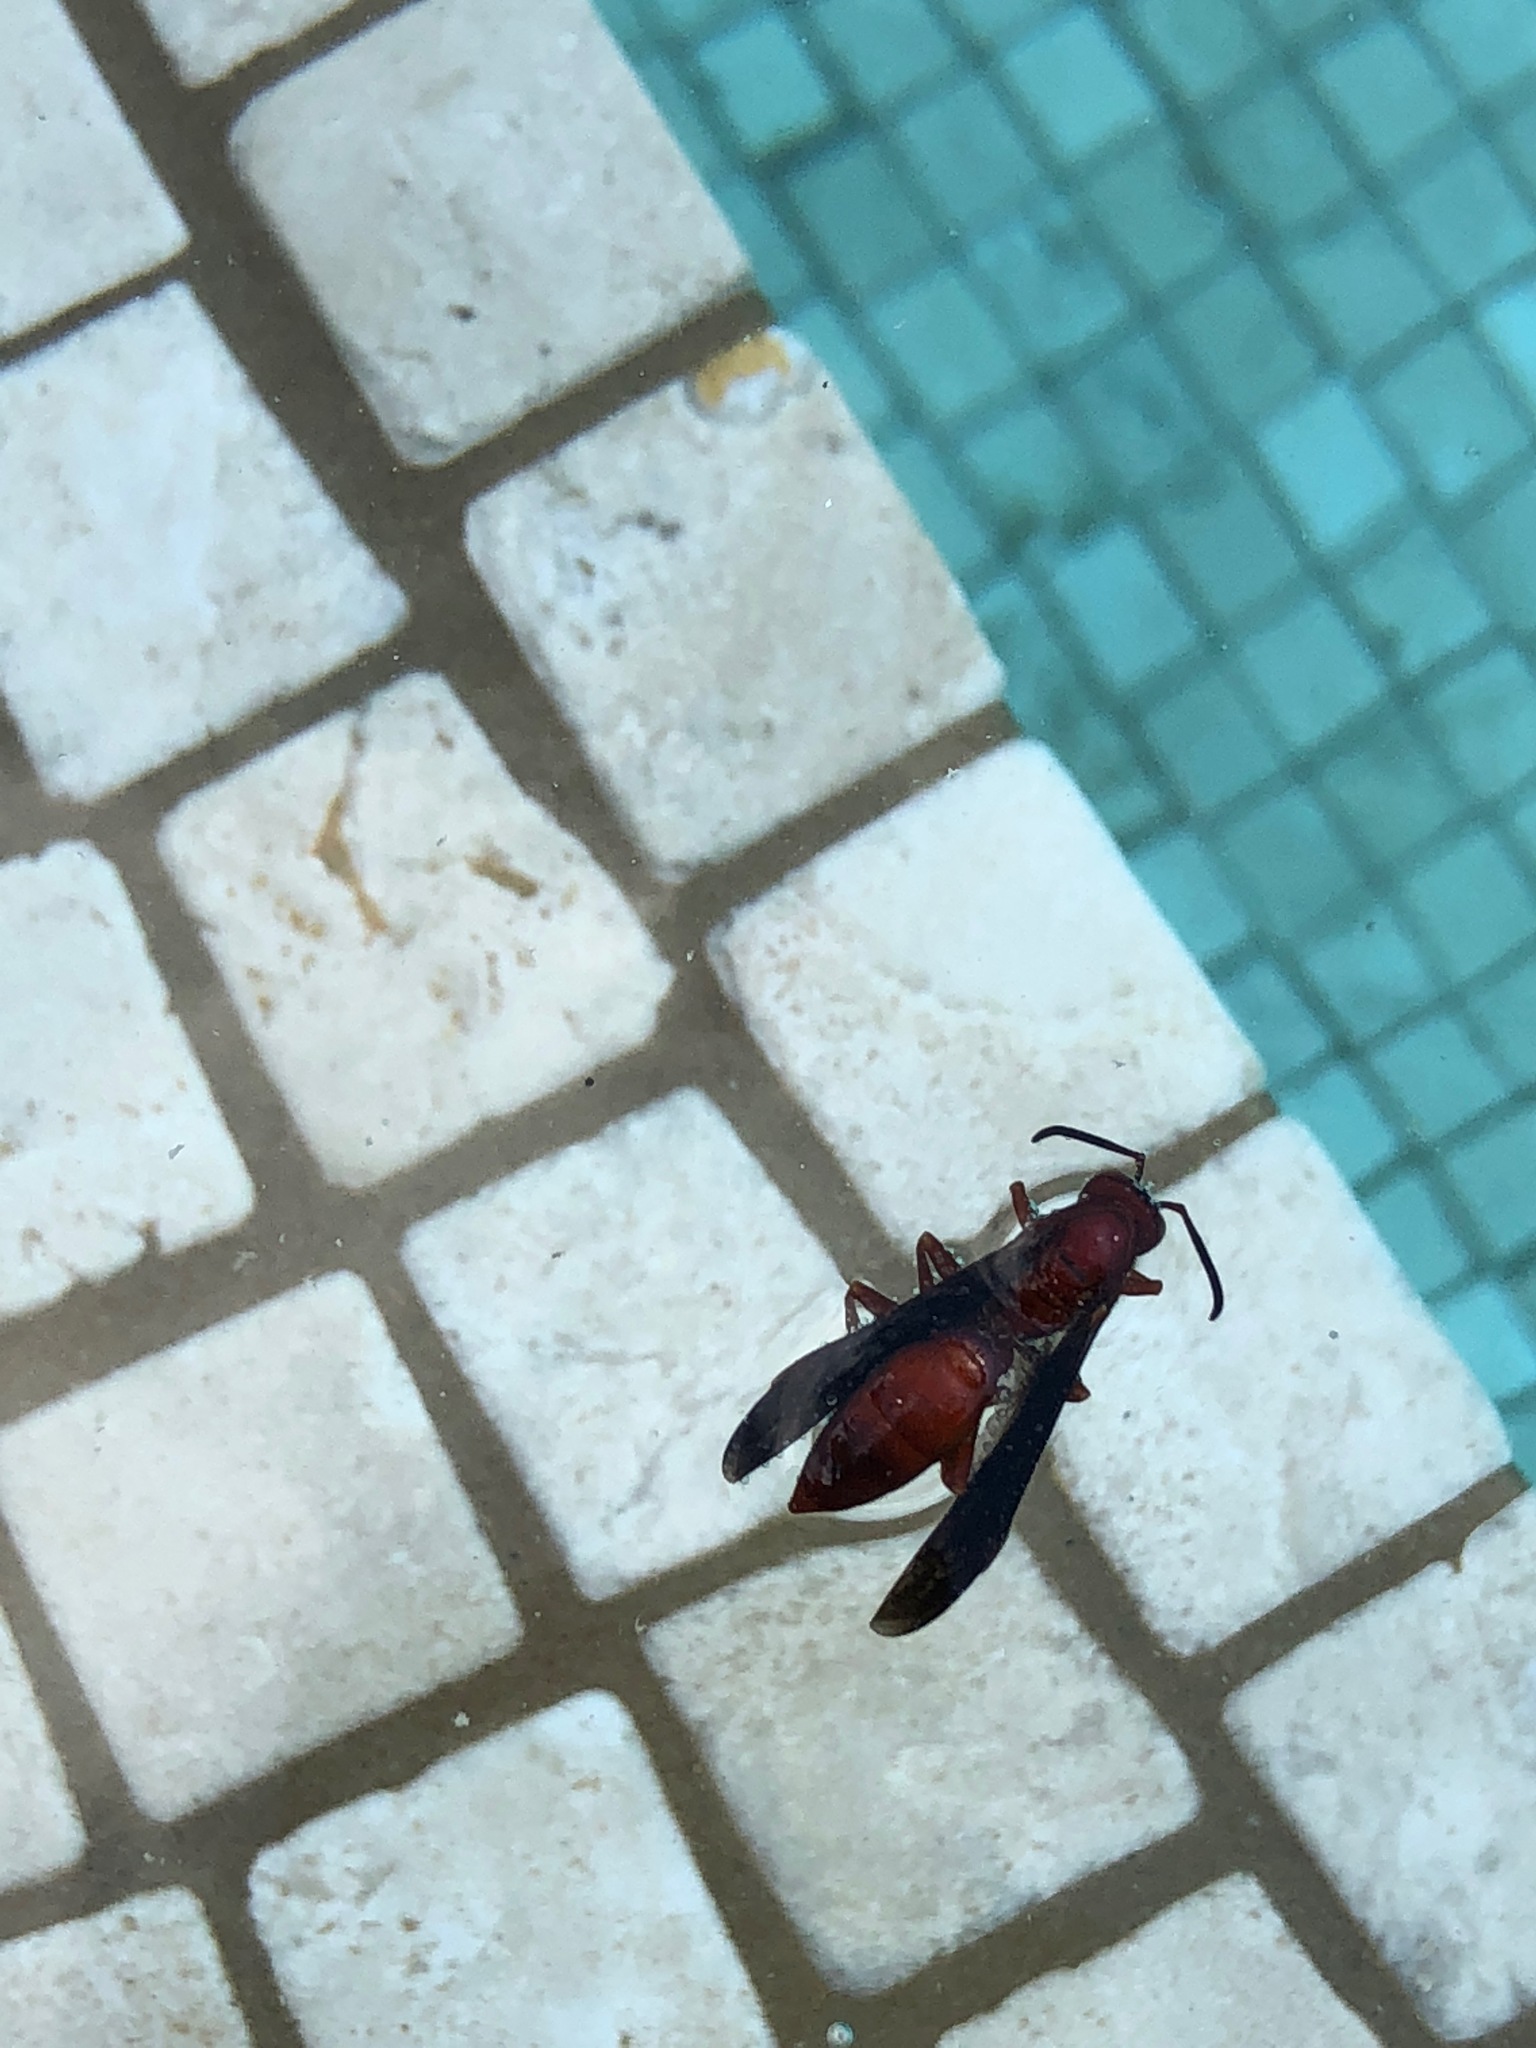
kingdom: Animalia
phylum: Arthropoda
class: Insecta
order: Hymenoptera
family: Vespidae
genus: Fuscopolistes
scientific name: Fuscopolistes
